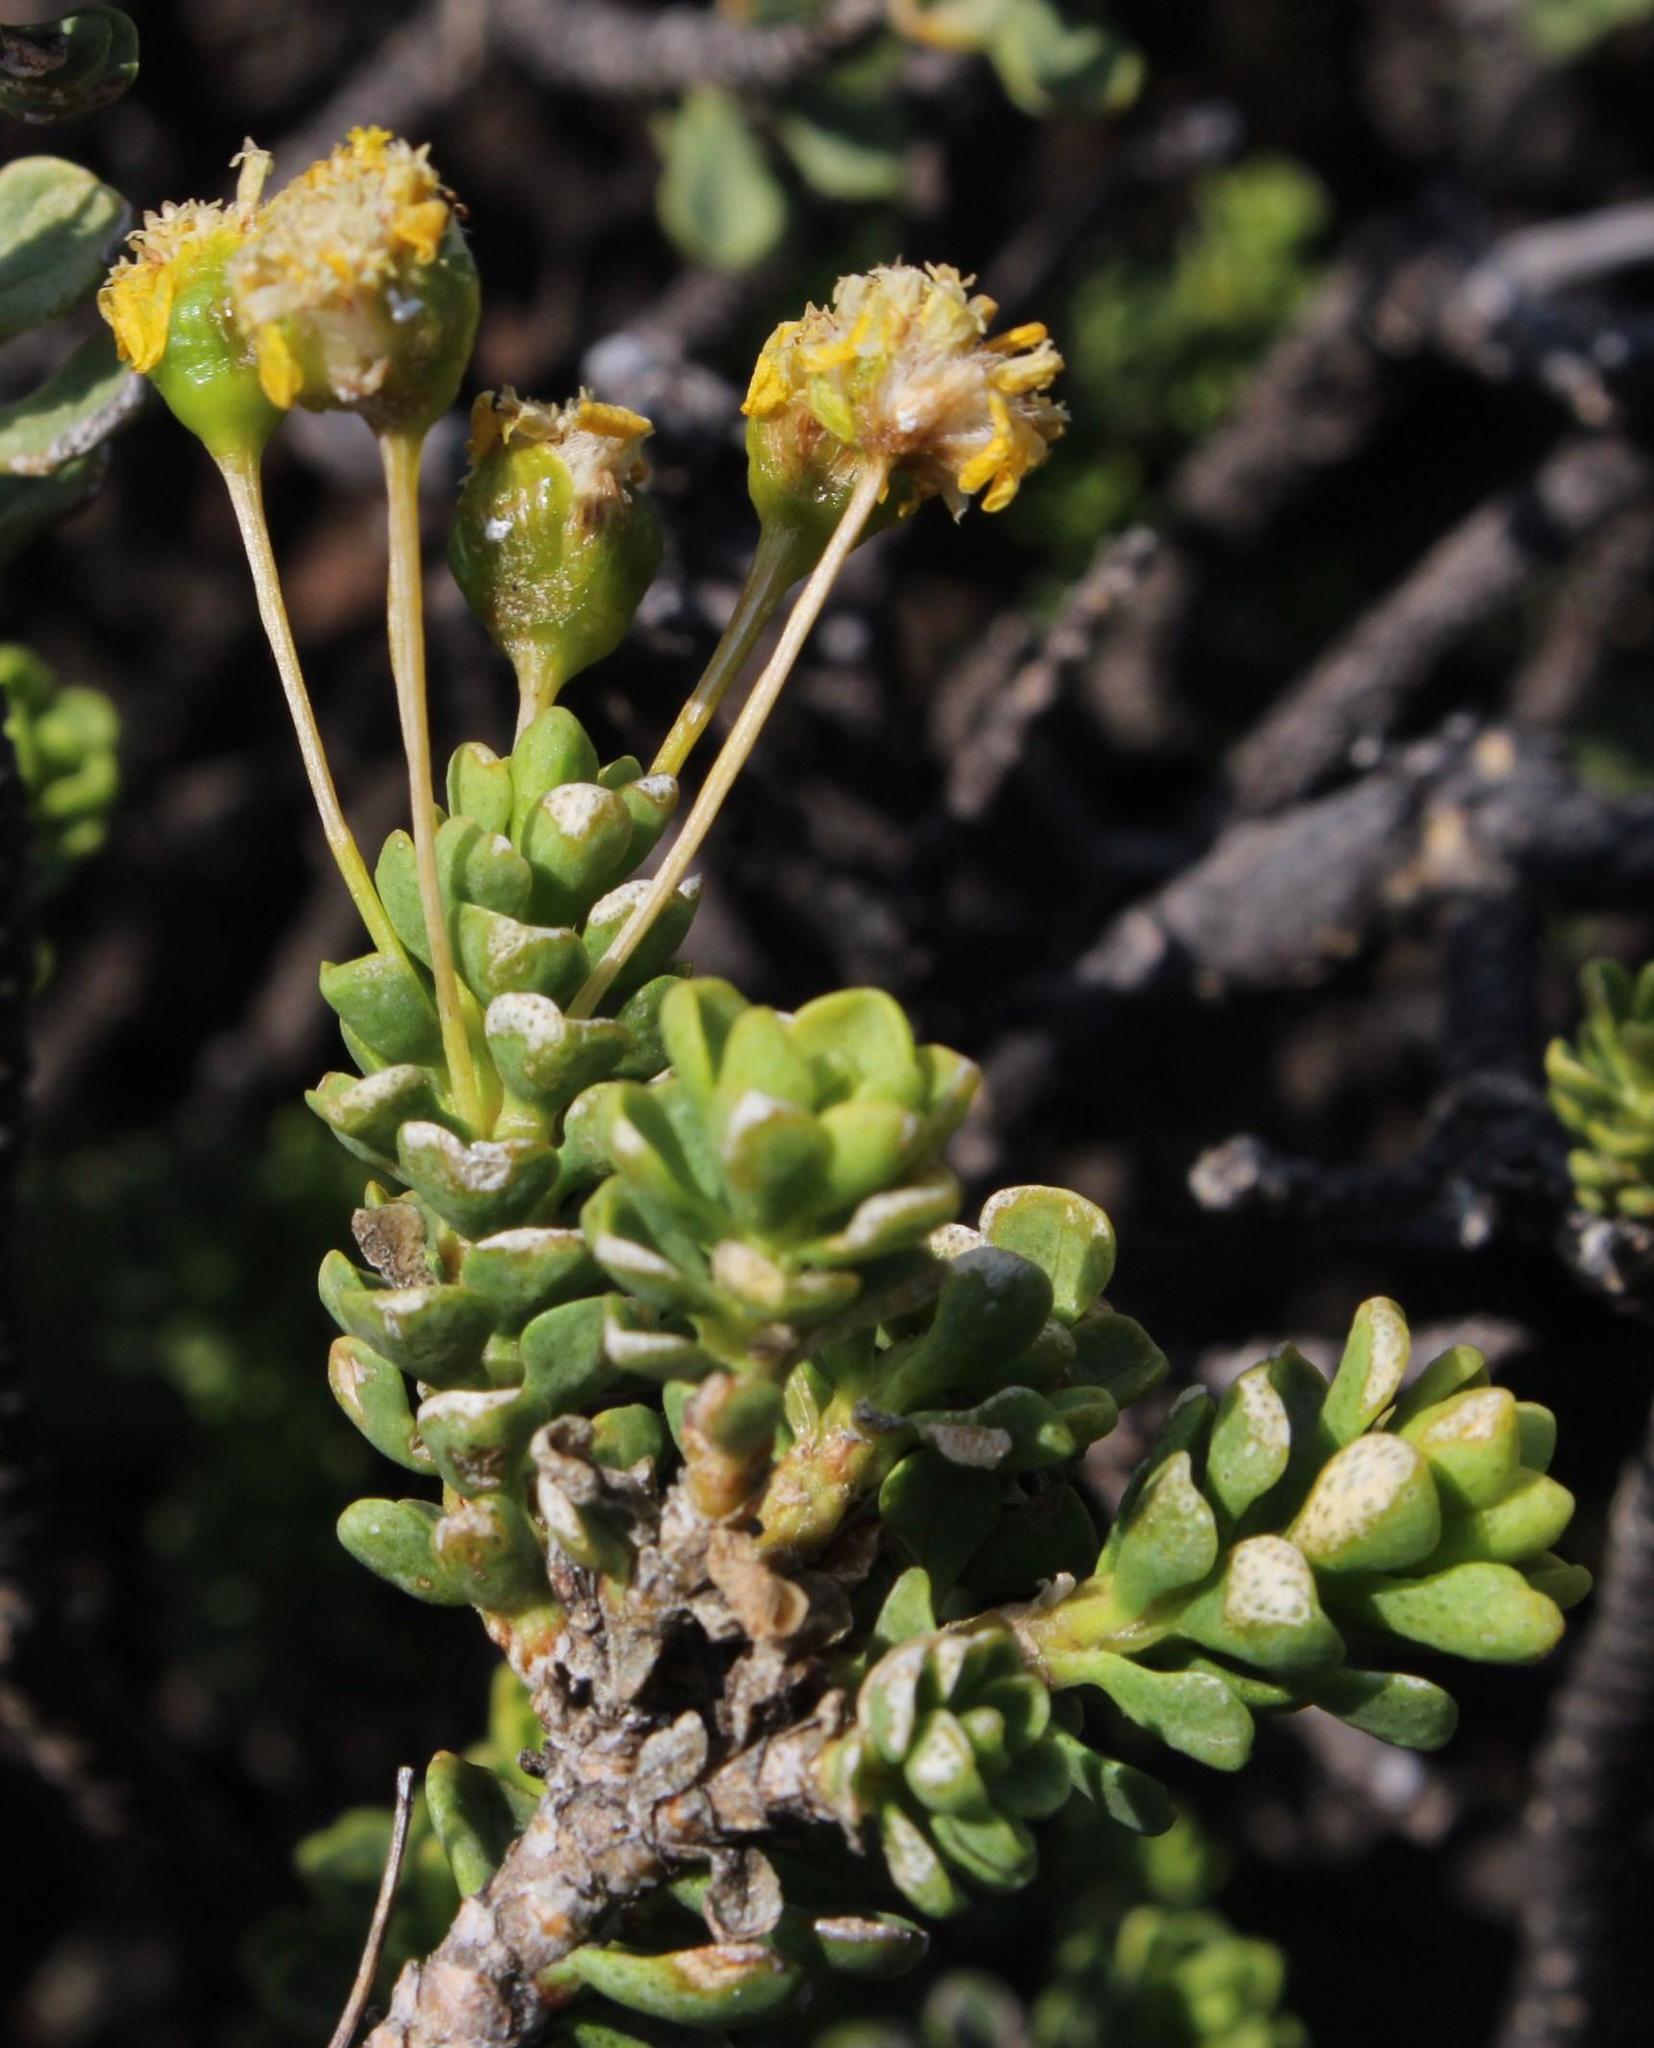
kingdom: Plantae
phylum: Tracheophyta
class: Magnoliopsida
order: Asterales
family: Asteraceae
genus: Euryops
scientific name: Euryops imbricatus
